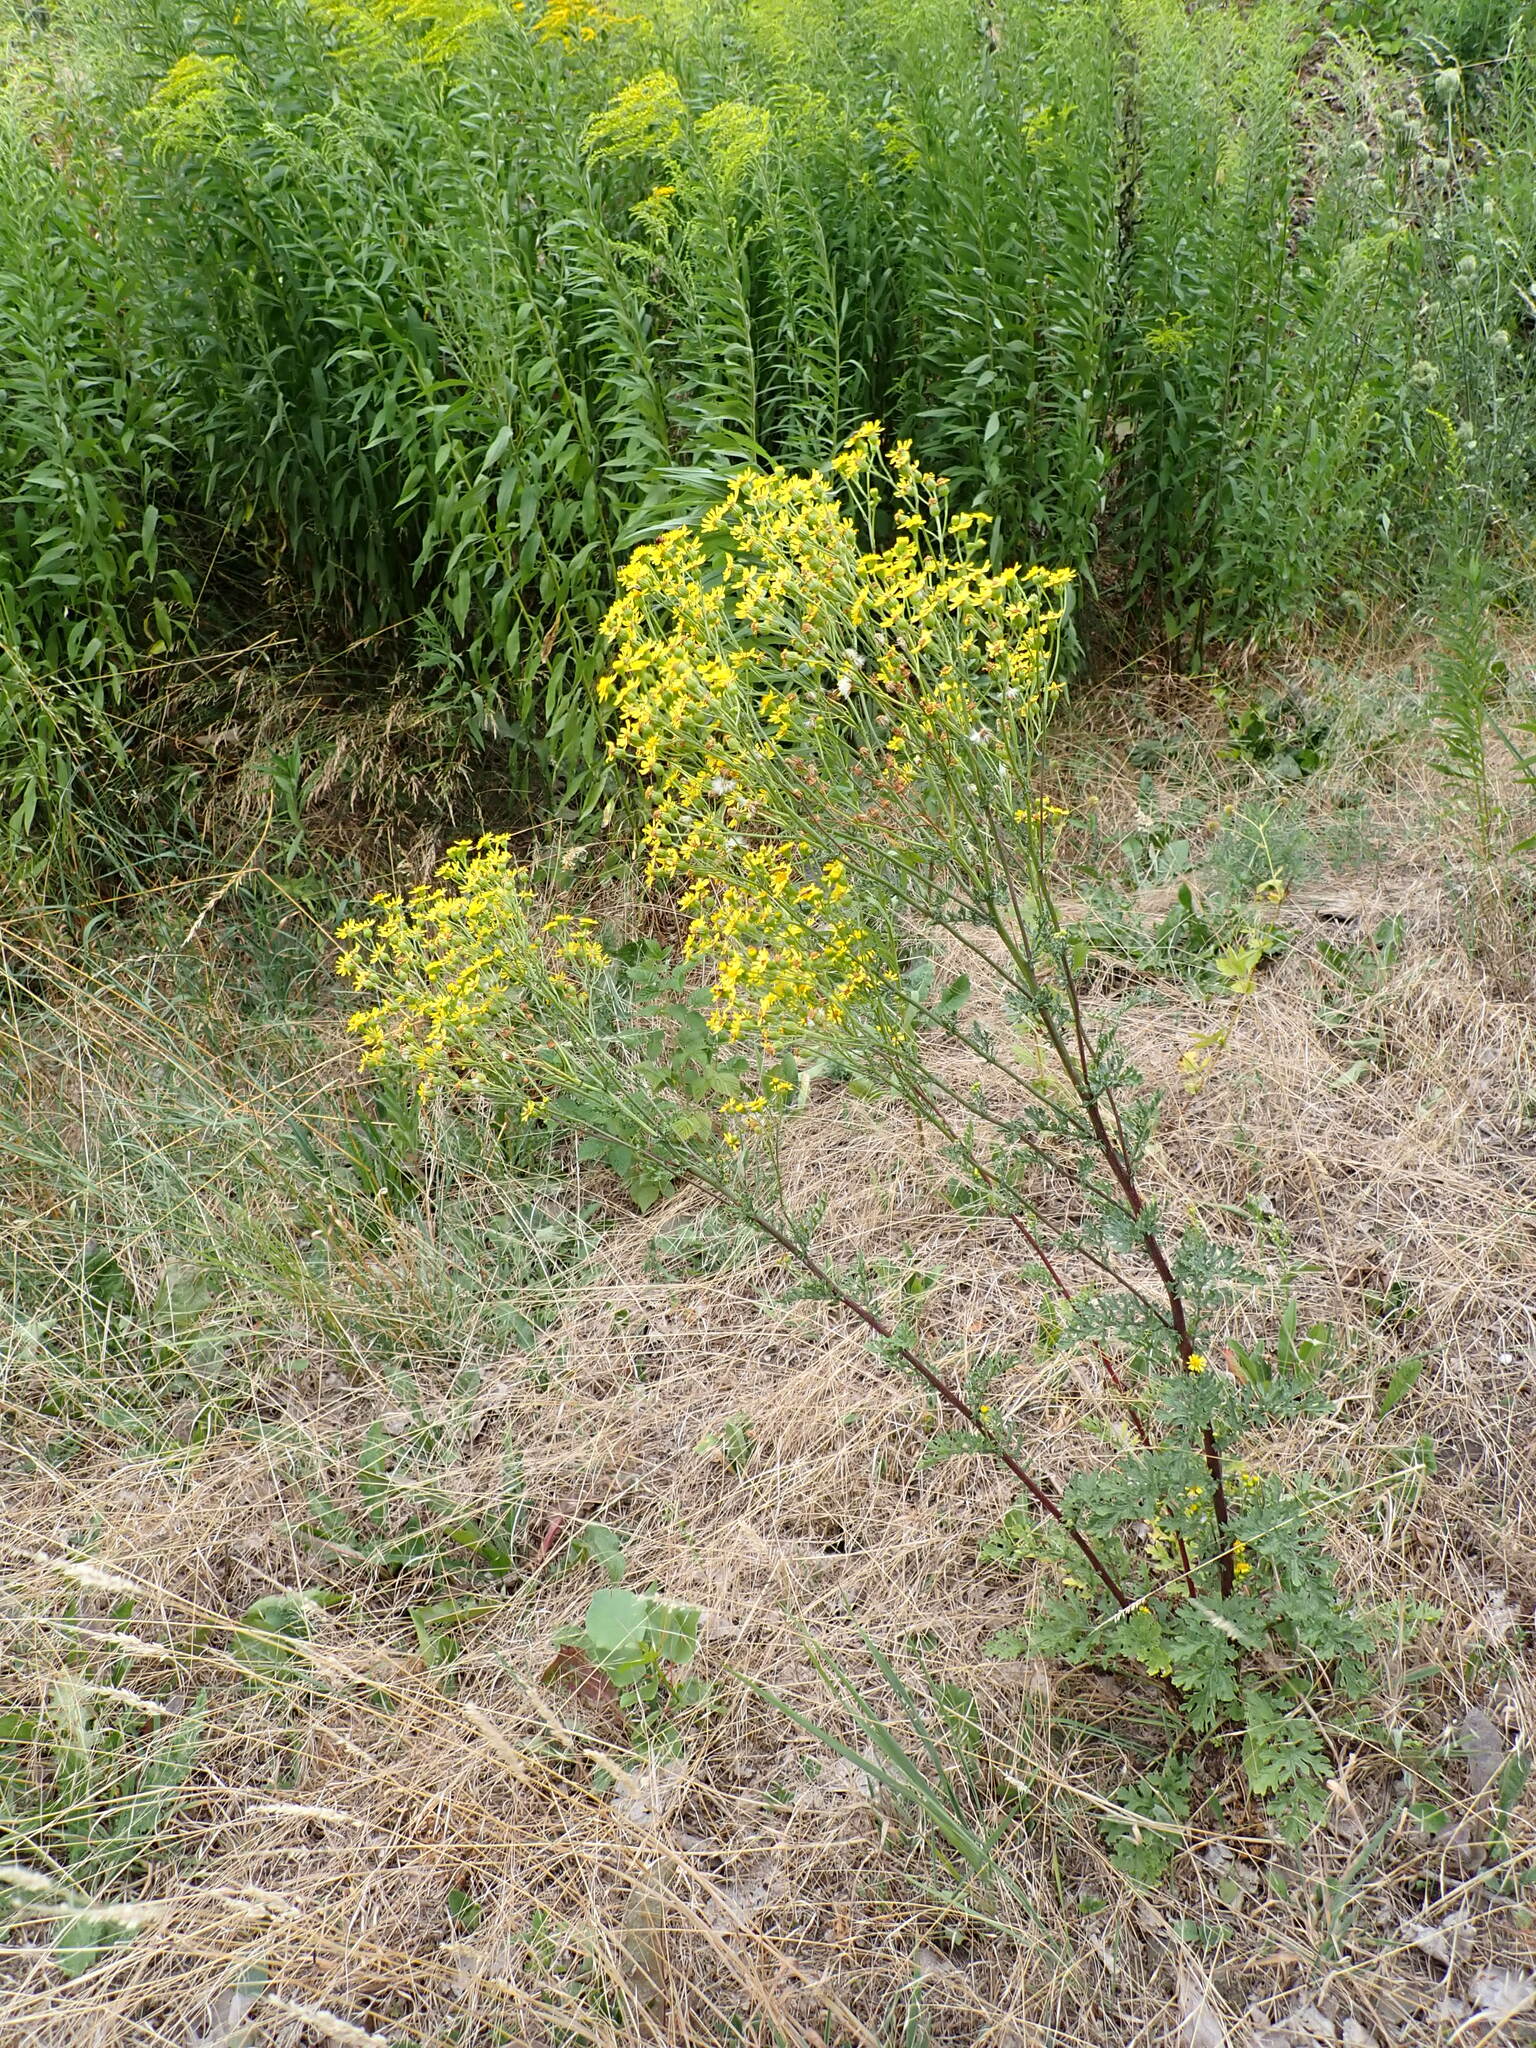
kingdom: Plantae
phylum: Tracheophyta
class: Magnoliopsida
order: Asterales
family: Asteraceae
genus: Jacobaea
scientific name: Jacobaea vulgaris
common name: Stinking willie
